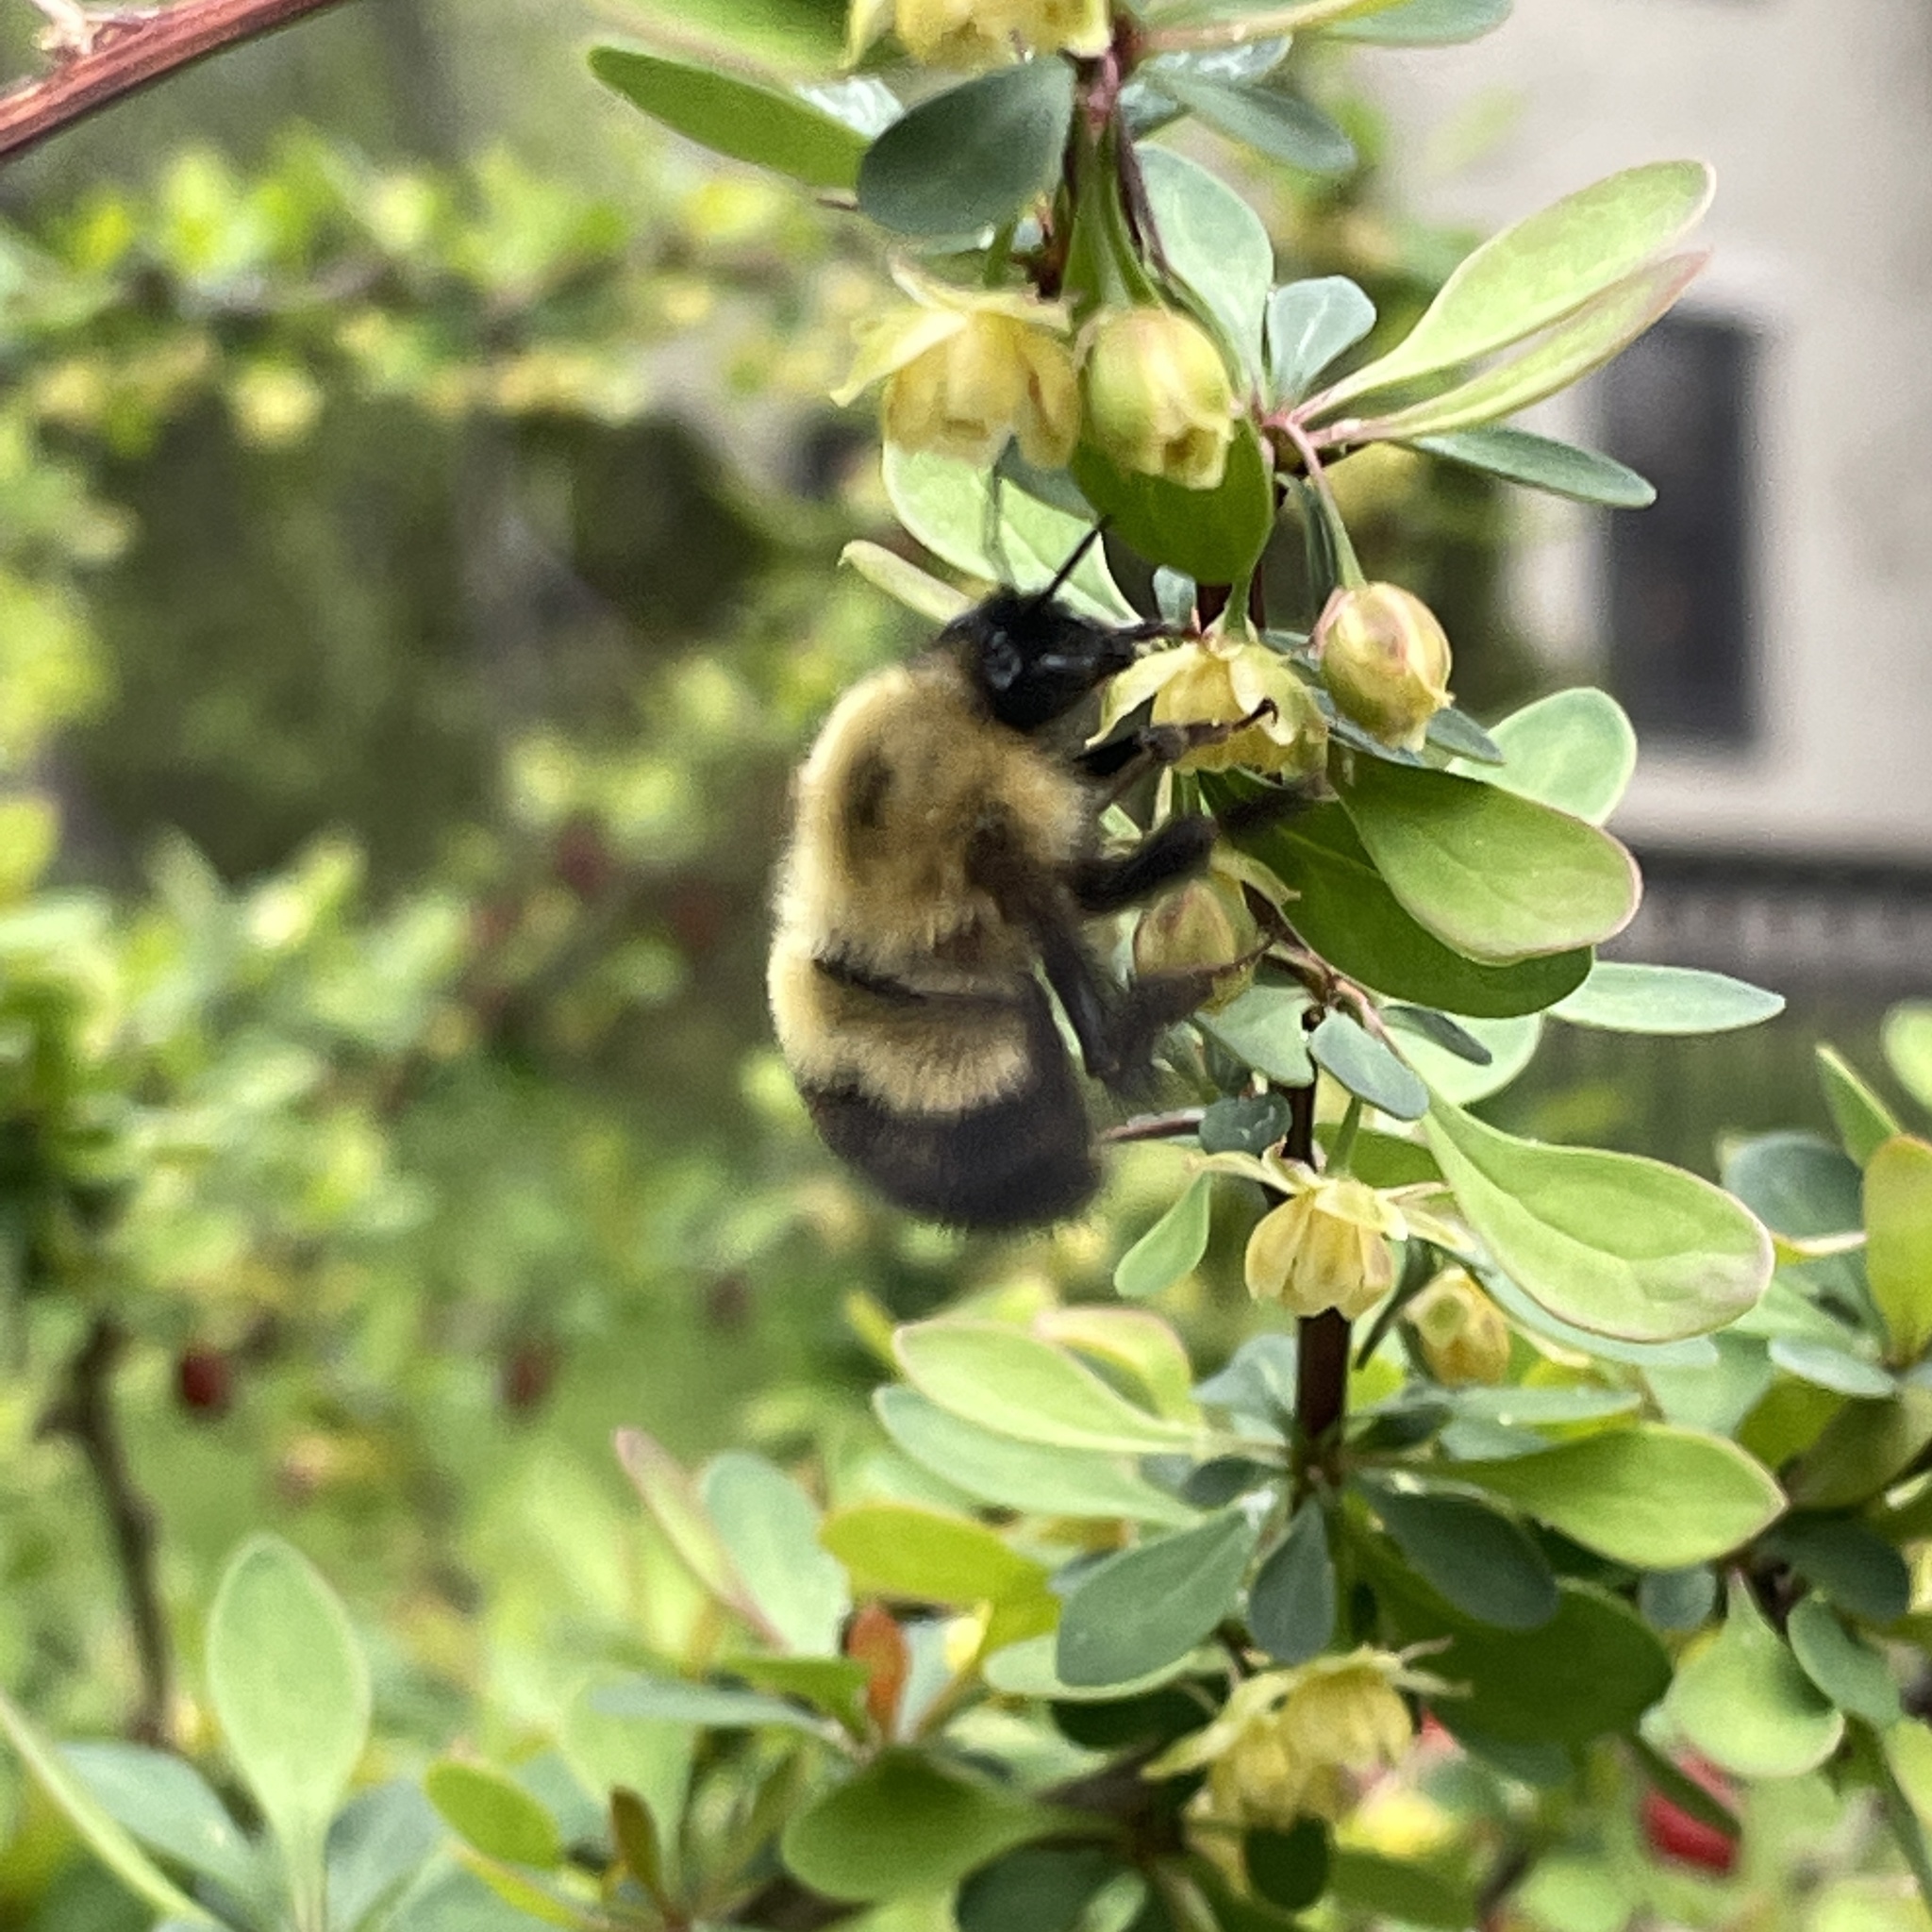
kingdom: Animalia
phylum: Arthropoda
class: Insecta
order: Hymenoptera
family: Apidae
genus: Bombus
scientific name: Bombus perplexus
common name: Confusing bumble bee
